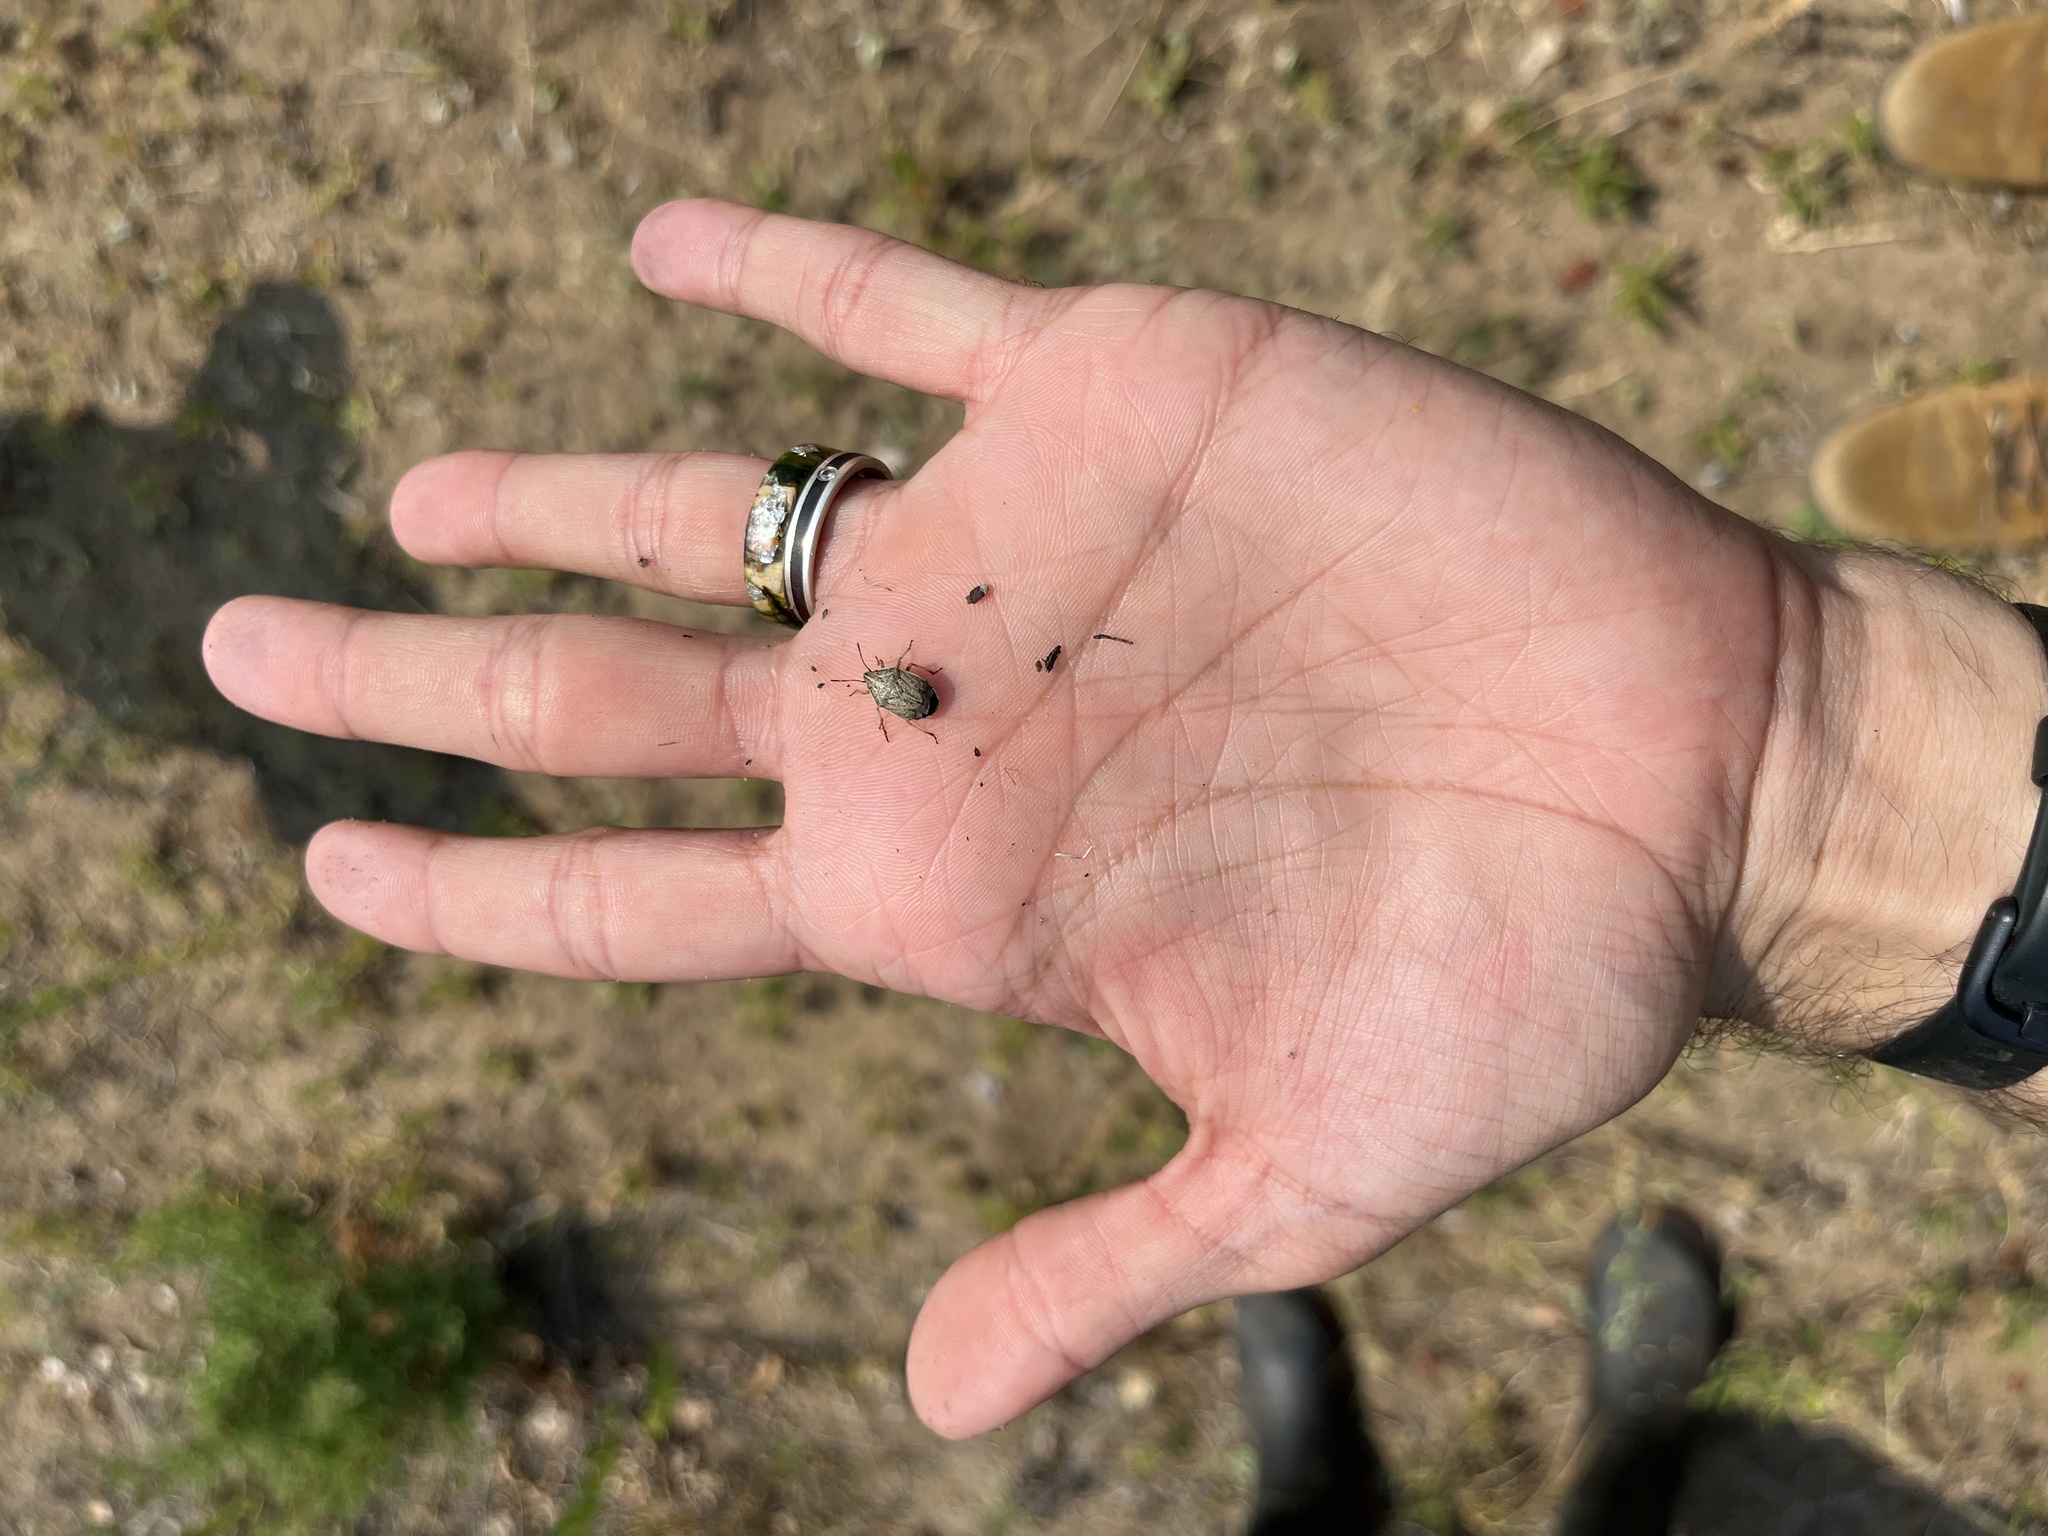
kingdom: Animalia
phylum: Arthropoda
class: Insecta
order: Hemiptera
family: Pentatomidae
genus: Coenus
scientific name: Coenus delius
